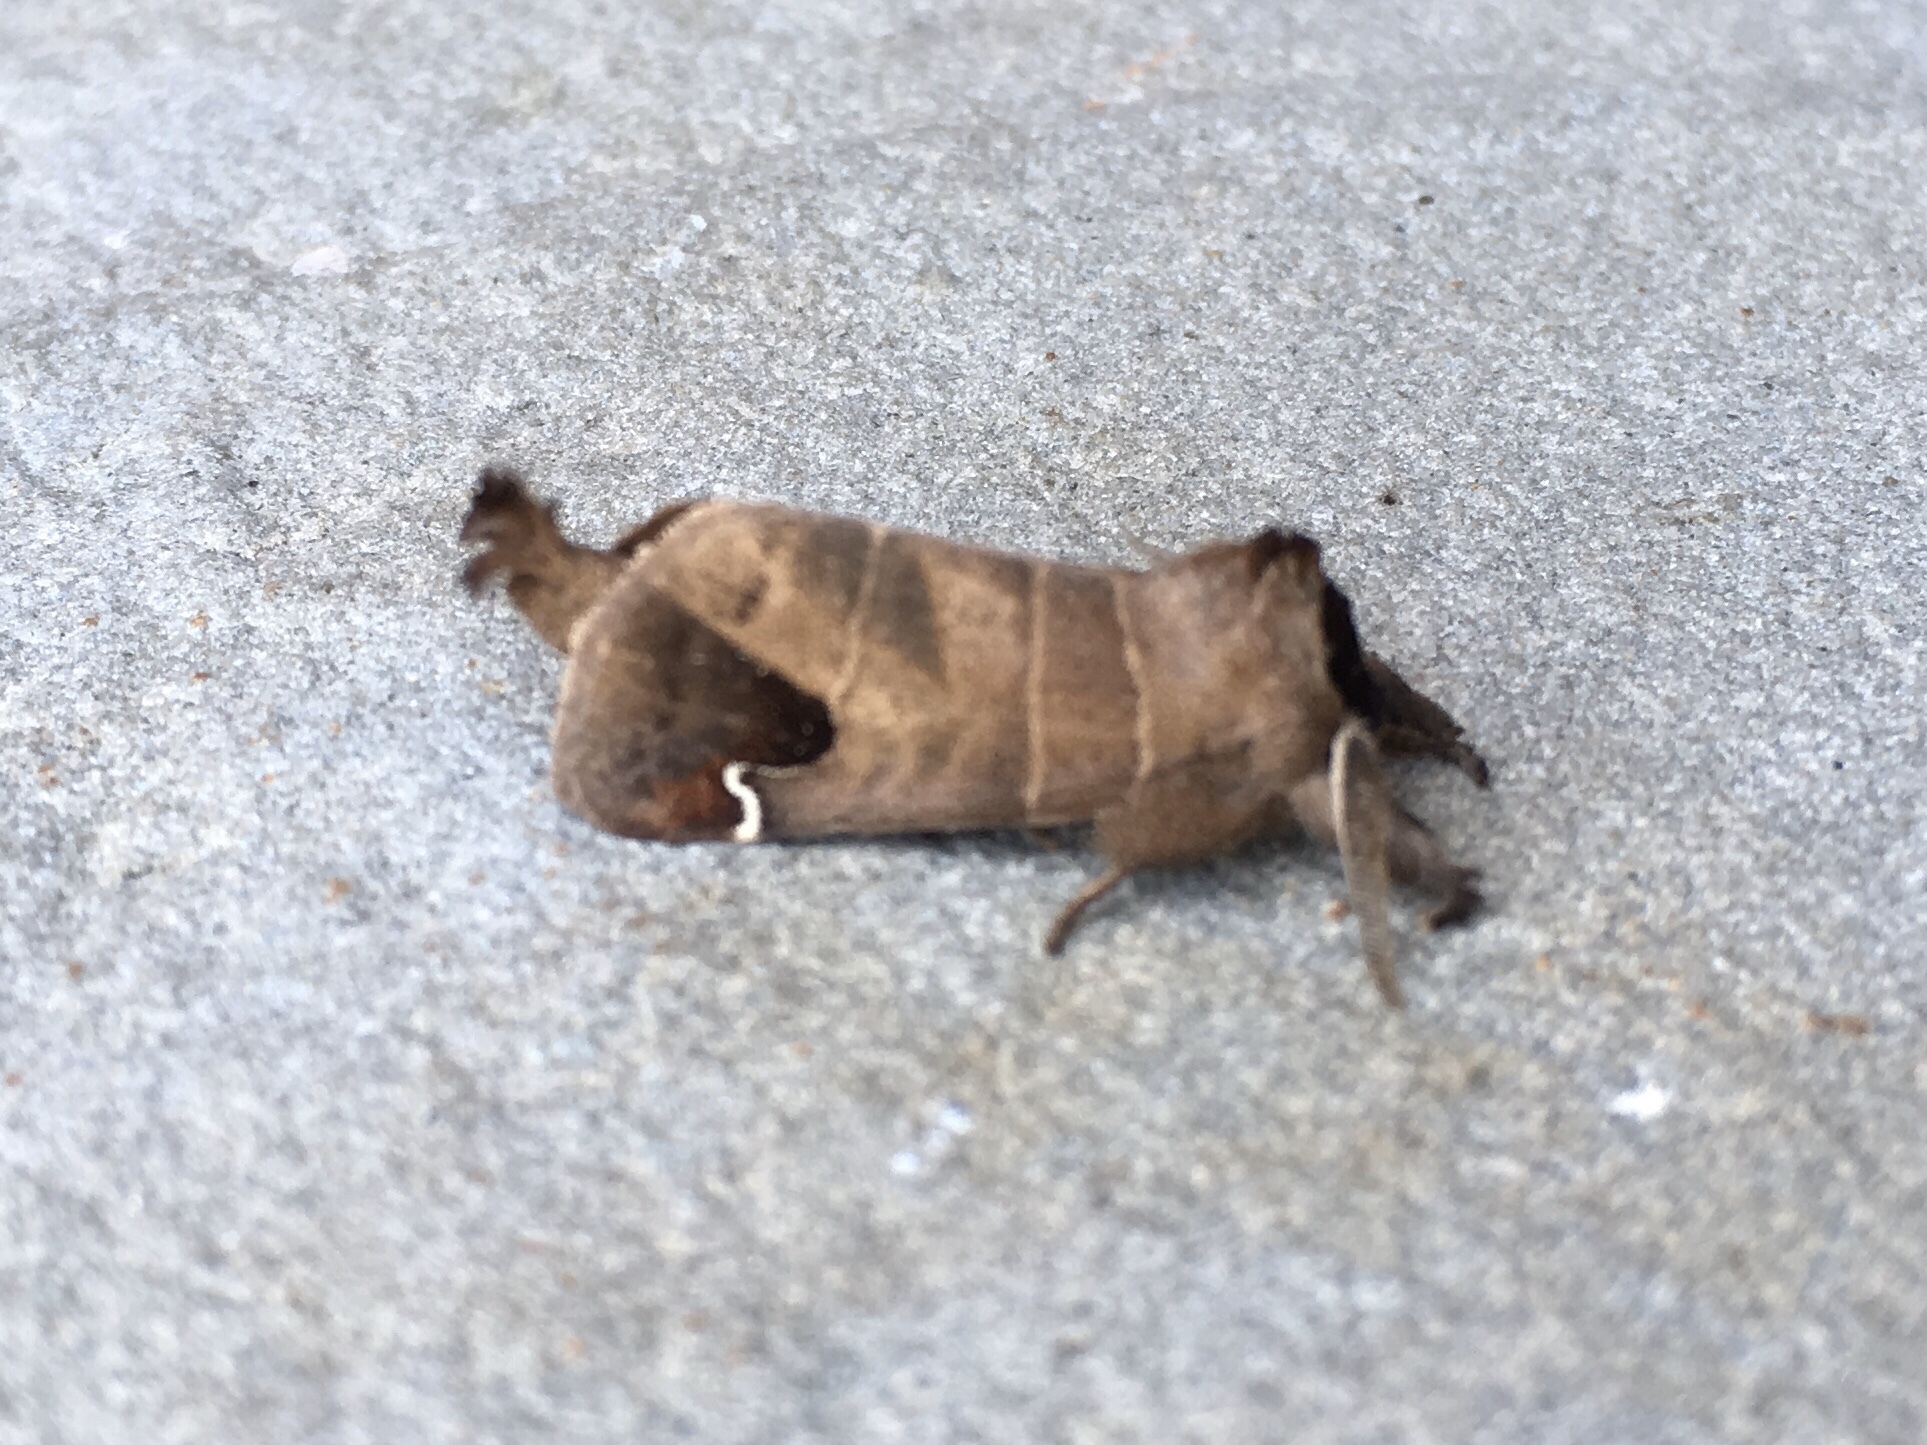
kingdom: Animalia
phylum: Arthropoda
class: Insecta
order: Lepidoptera
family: Notodontidae
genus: Clostera
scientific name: Clostera albosigma
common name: Sigmoid prominent
